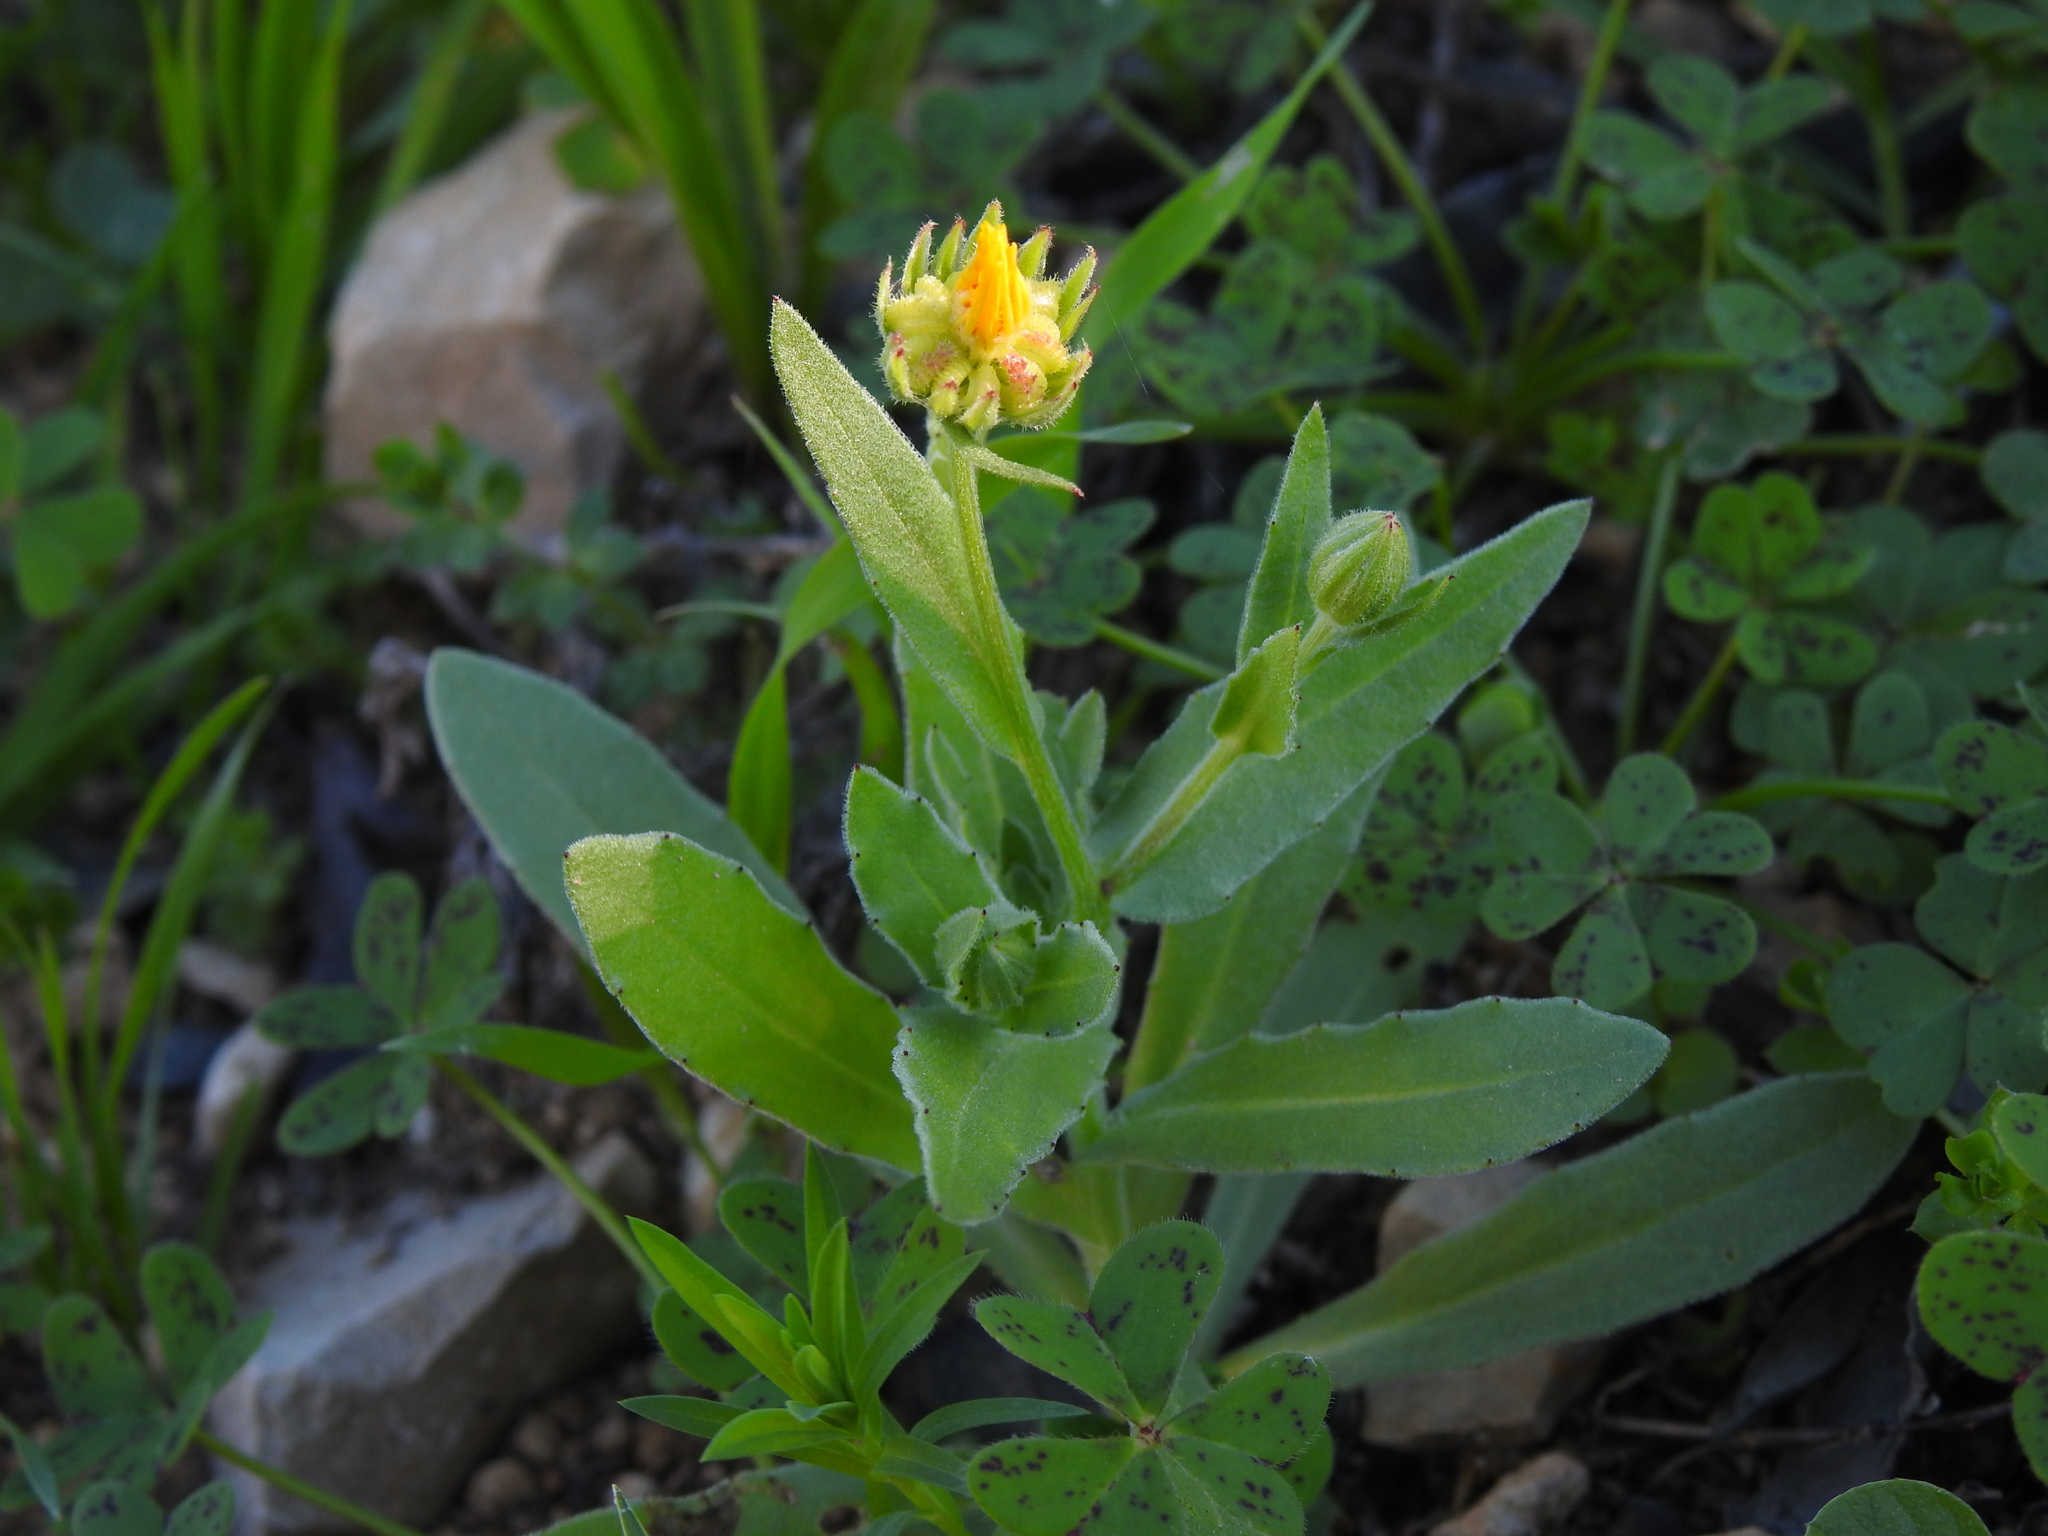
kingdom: Plantae
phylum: Tracheophyta
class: Magnoliopsida
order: Asterales
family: Asteraceae
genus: Calendula
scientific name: Calendula arvensis
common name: Field marigold
